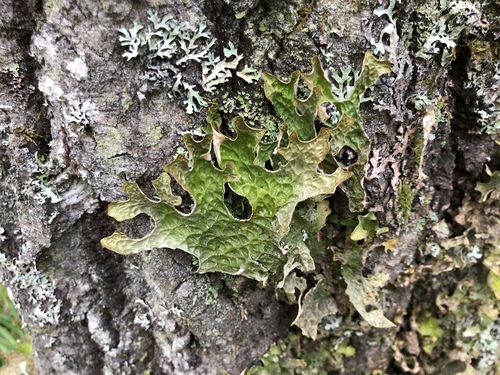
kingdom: Fungi
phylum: Ascomycota
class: Lecanoromycetes
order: Peltigerales
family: Lobariaceae
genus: Lobaria
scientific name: Lobaria pulmonaria
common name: Lungwort
